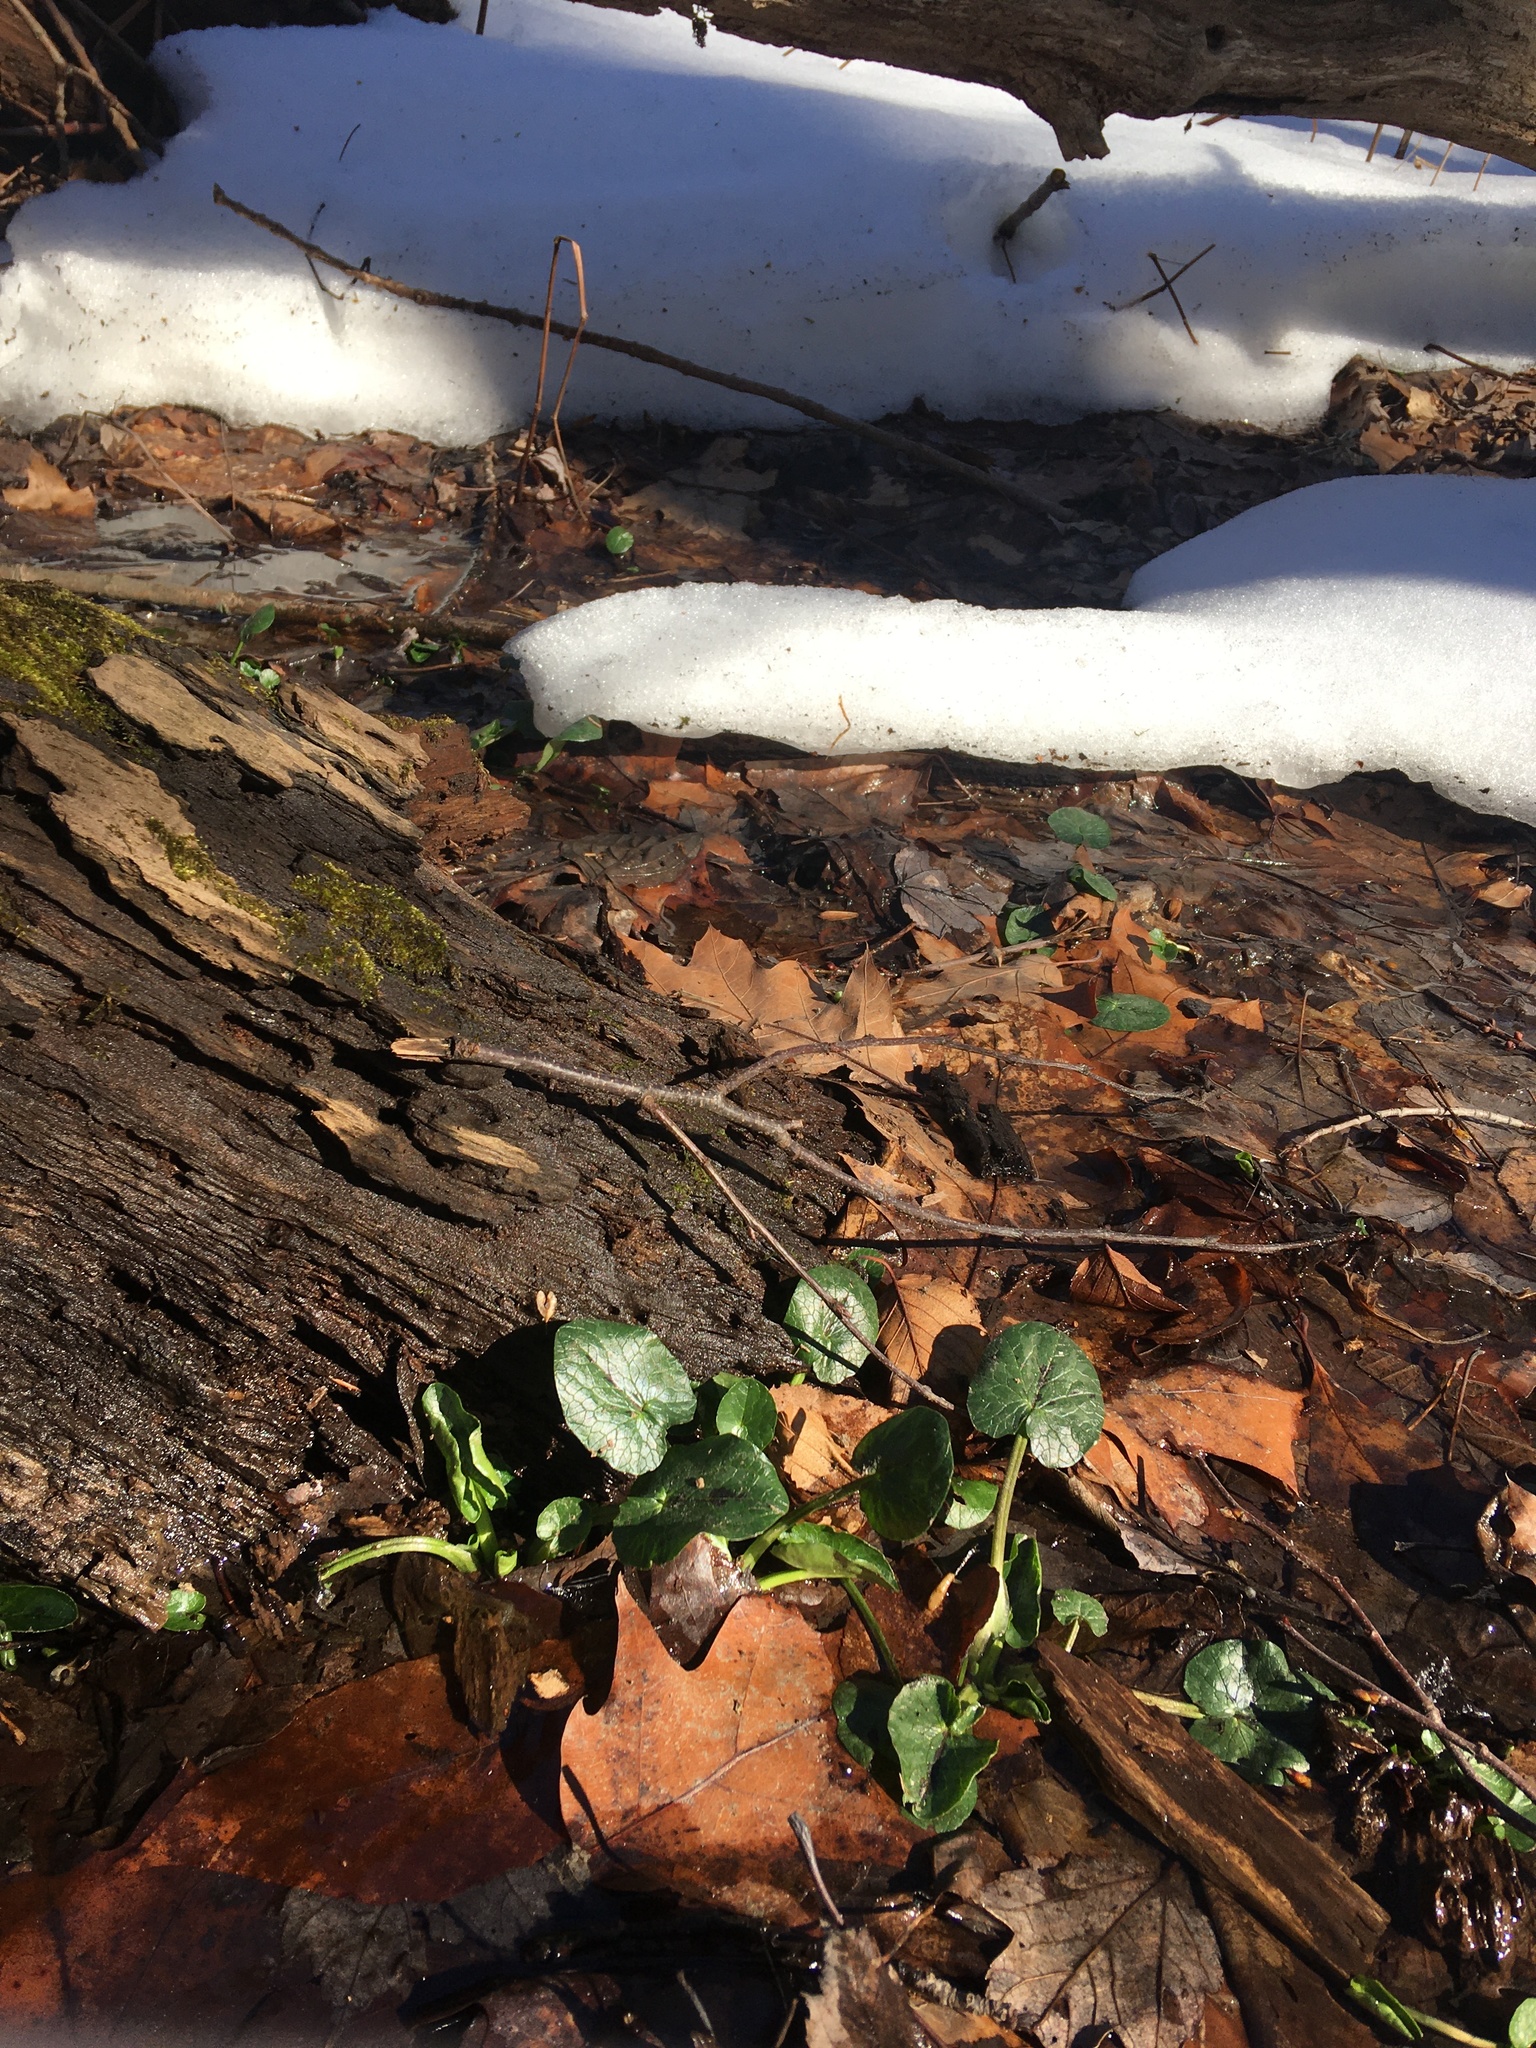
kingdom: Plantae
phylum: Tracheophyta
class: Magnoliopsida
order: Ranunculales
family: Ranunculaceae
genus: Ficaria
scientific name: Ficaria verna
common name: Lesser celandine
